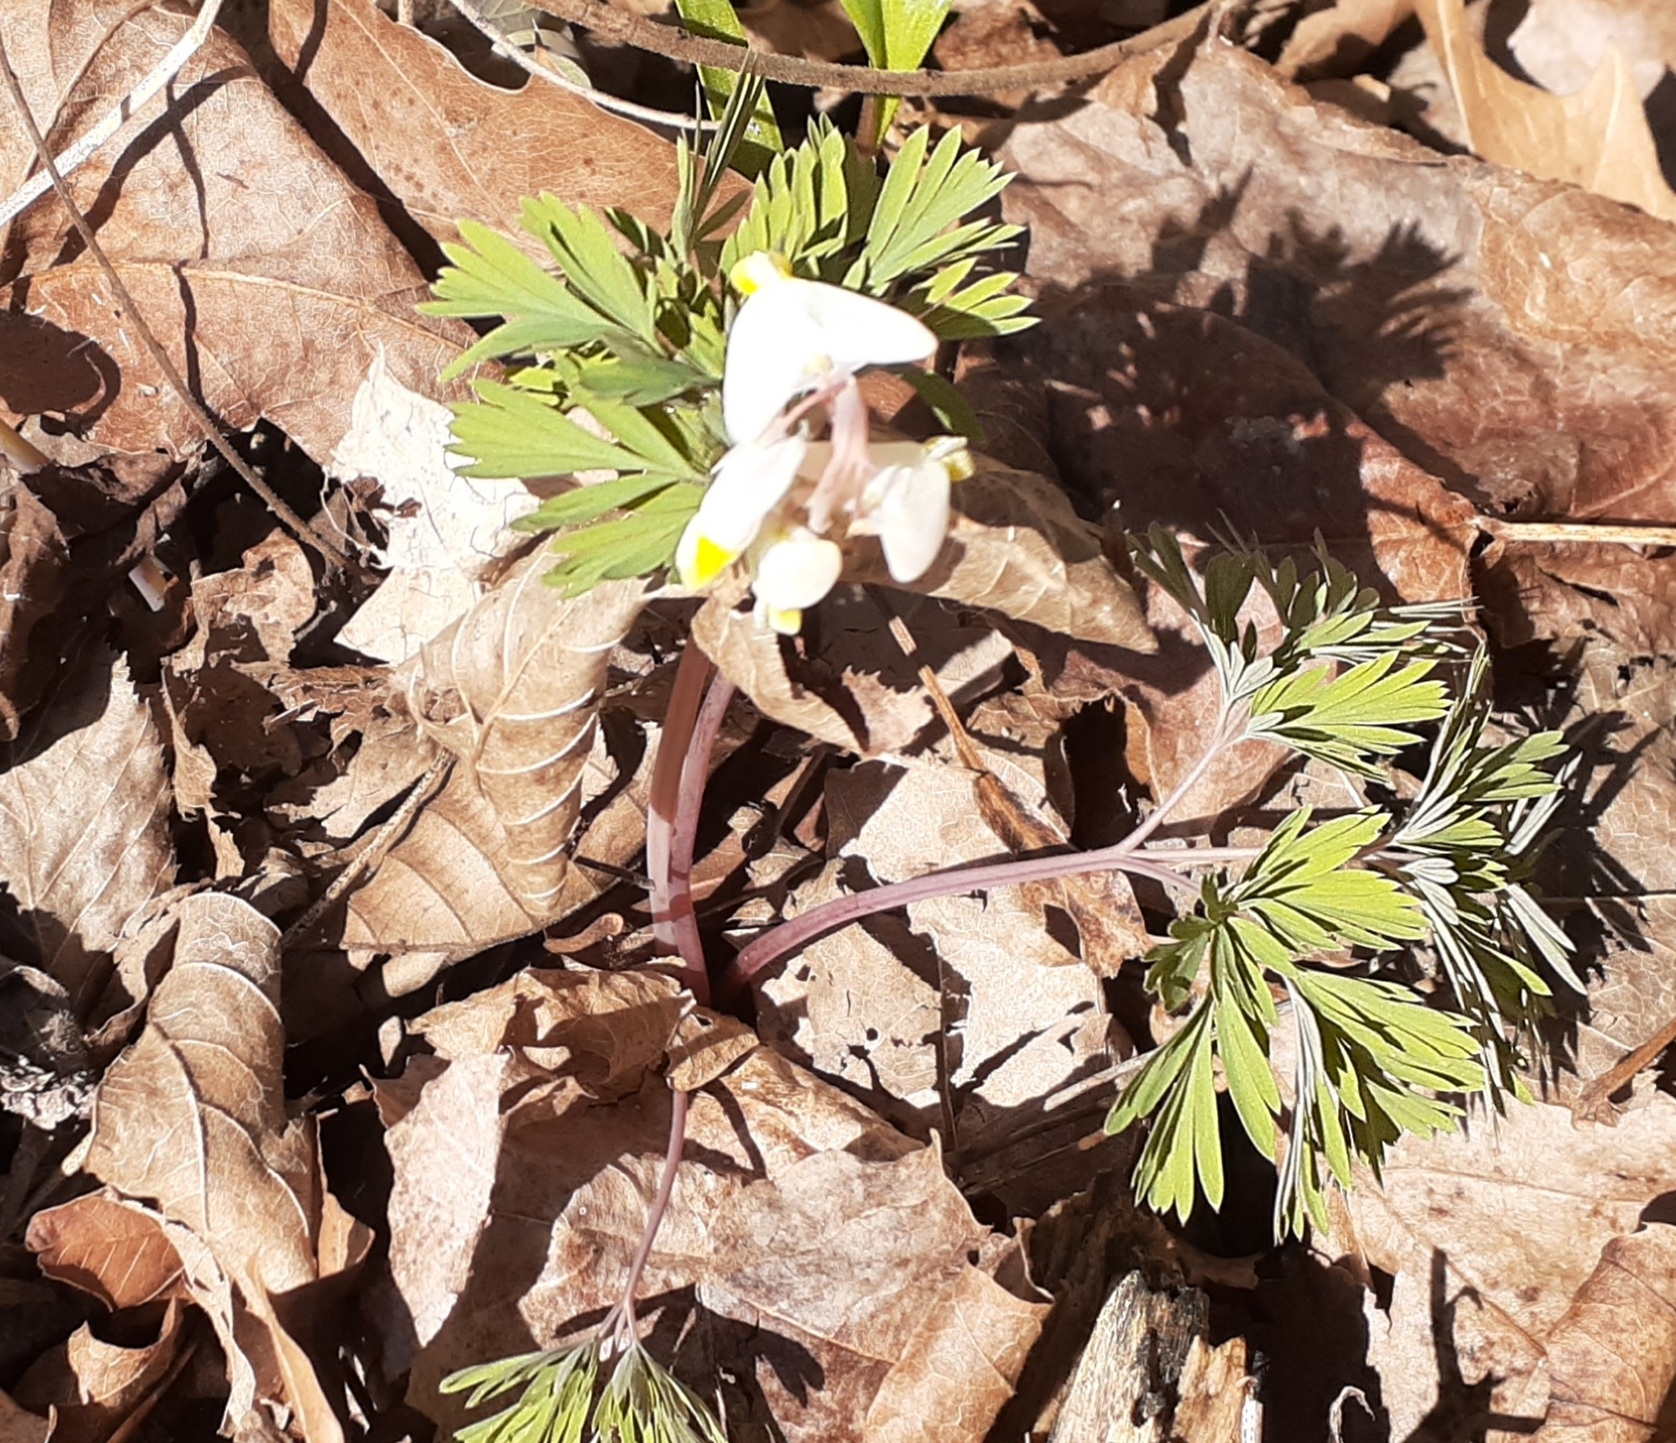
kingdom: Plantae
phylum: Tracheophyta
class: Magnoliopsida
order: Ranunculales
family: Papaveraceae
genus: Dicentra
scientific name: Dicentra cucullaria
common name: Dutchman's breeches
